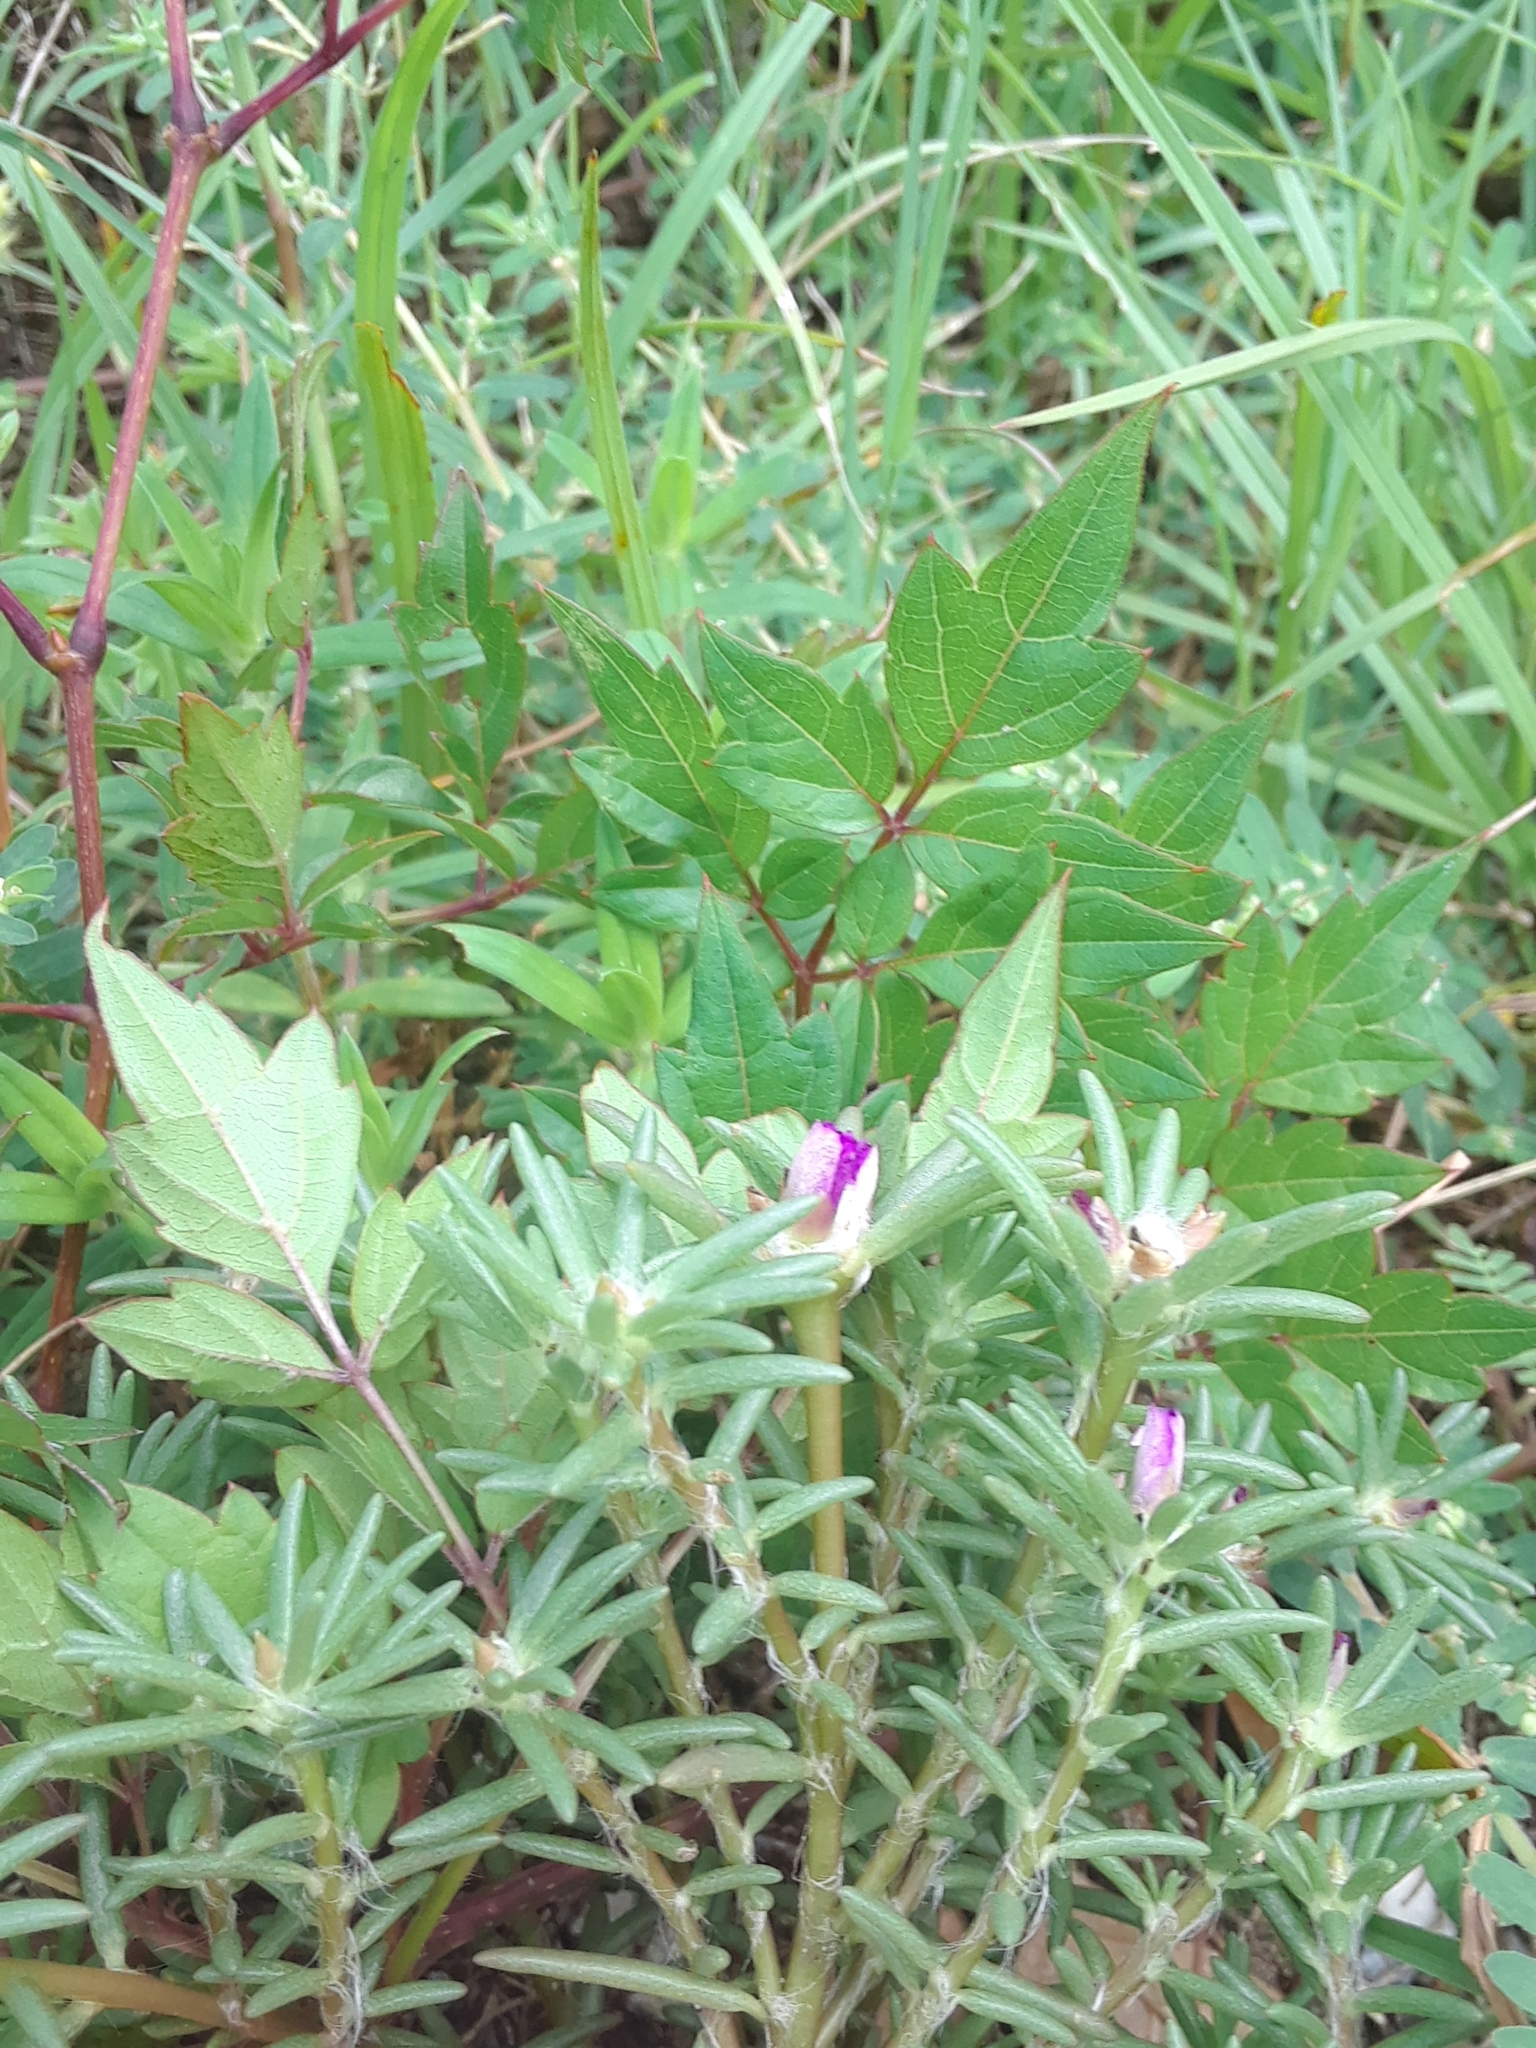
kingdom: Plantae
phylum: Tracheophyta
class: Magnoliopsida
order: Caryophyllales
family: Portulacaceae
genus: Portulaca
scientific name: Portulaca pilosa
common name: Kiss me quick
